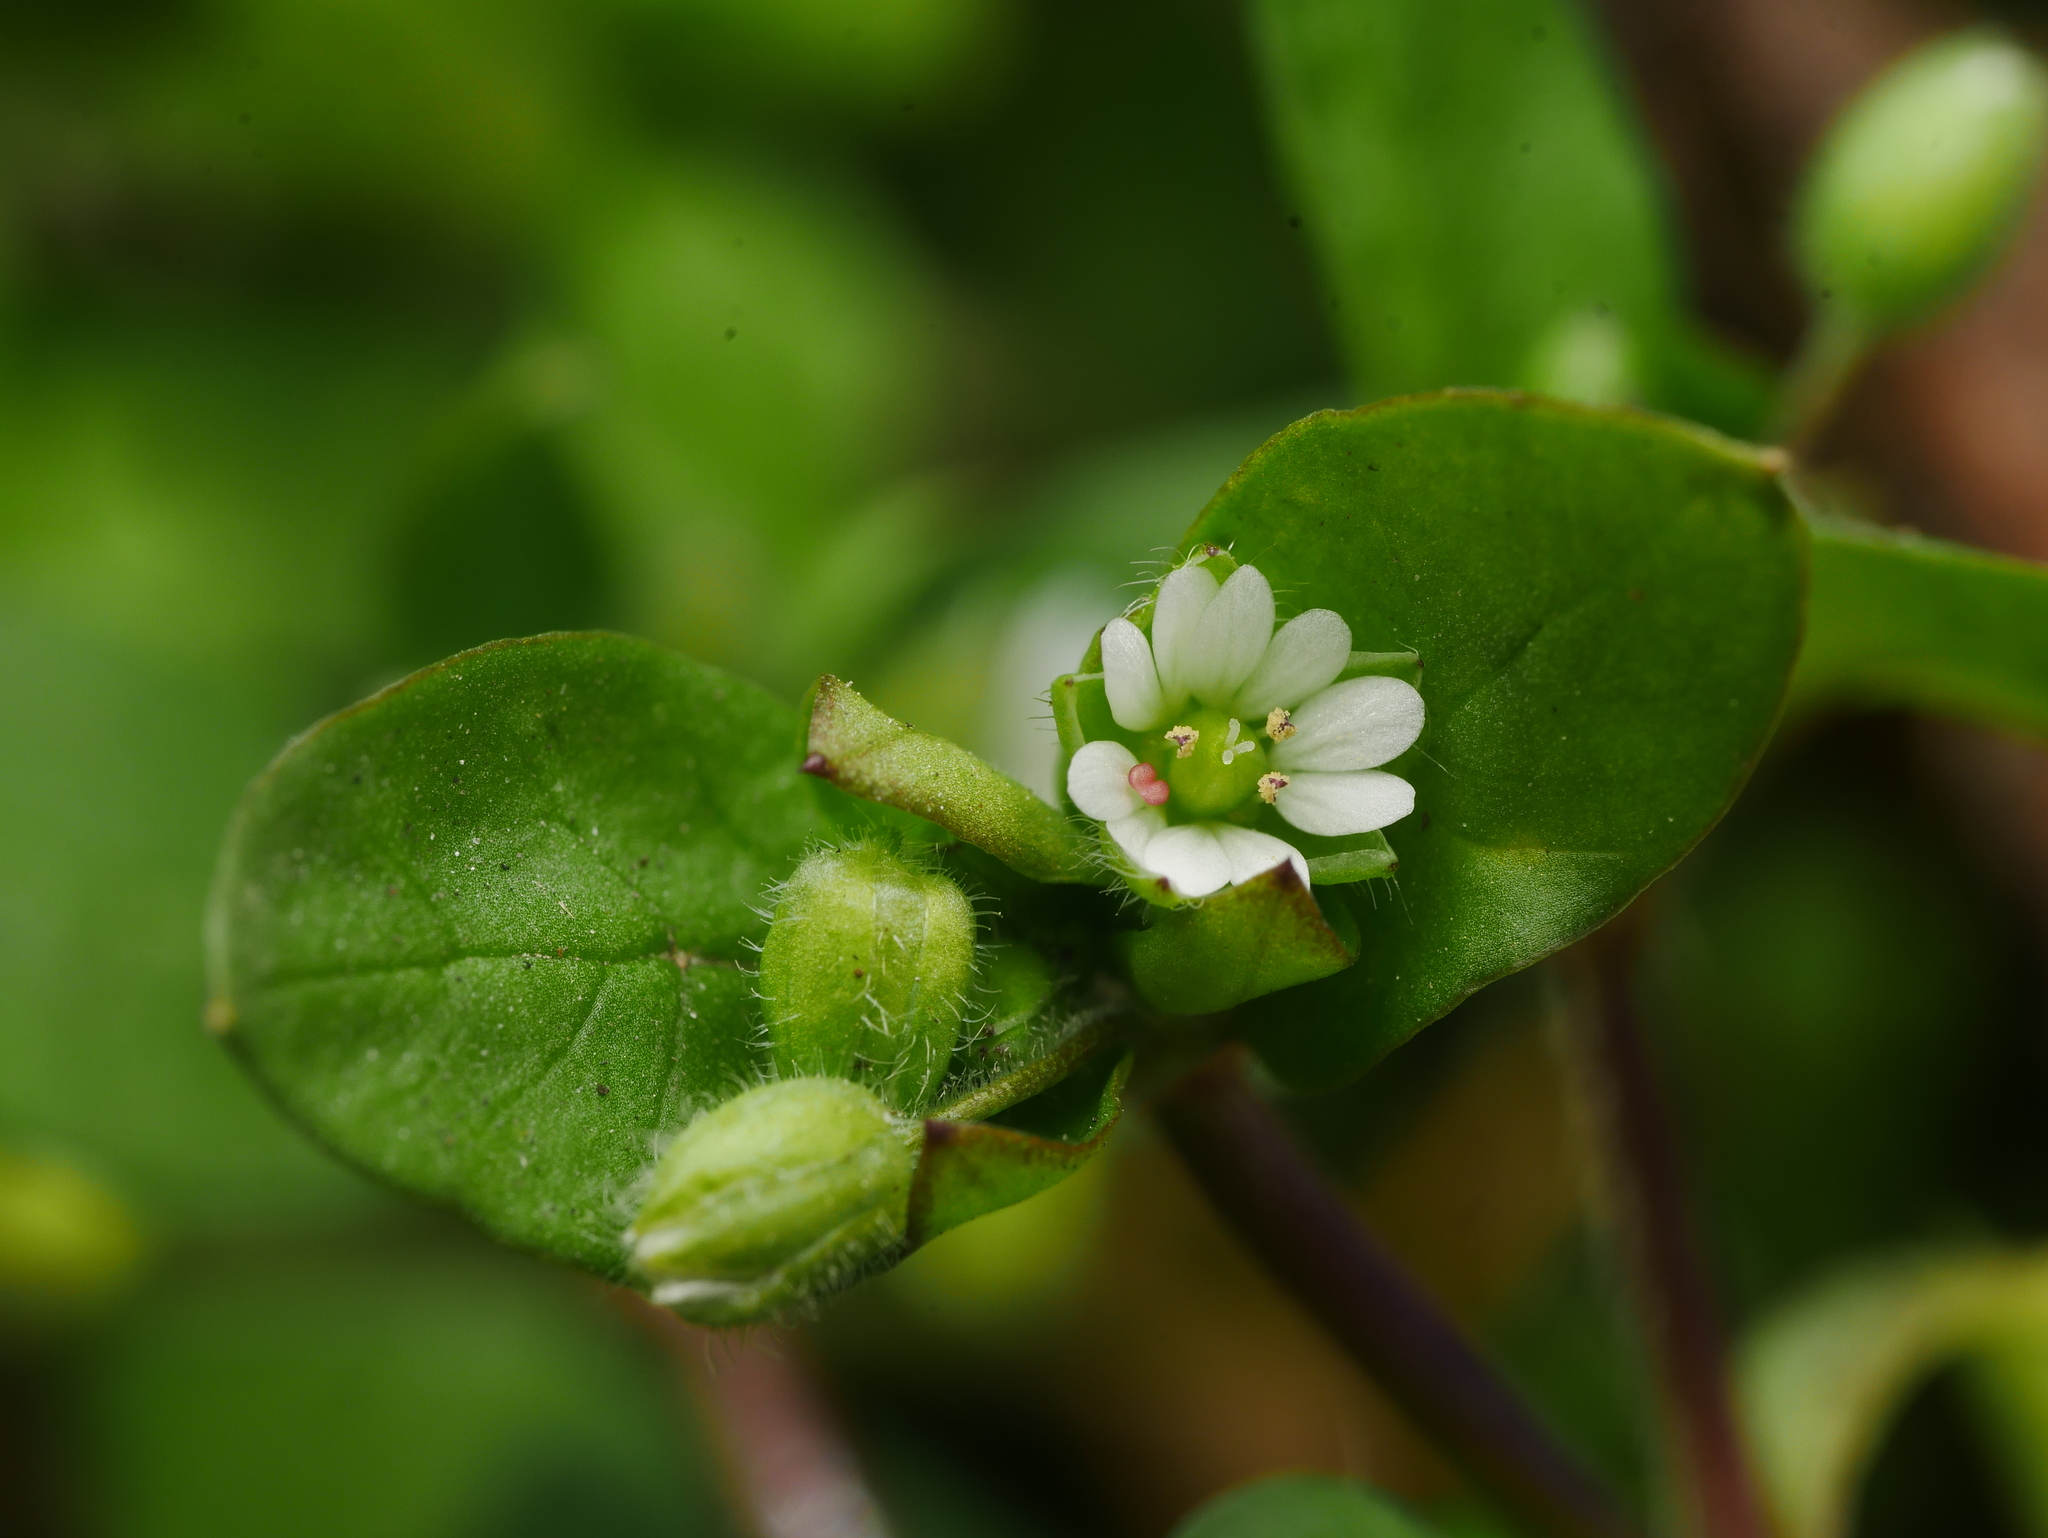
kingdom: Plantae
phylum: Tracheophyta
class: Magnoliopsida
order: Caryophyllales
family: Caryophyllaceae
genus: Stellaria
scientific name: Stellaria media
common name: Common chickweed
